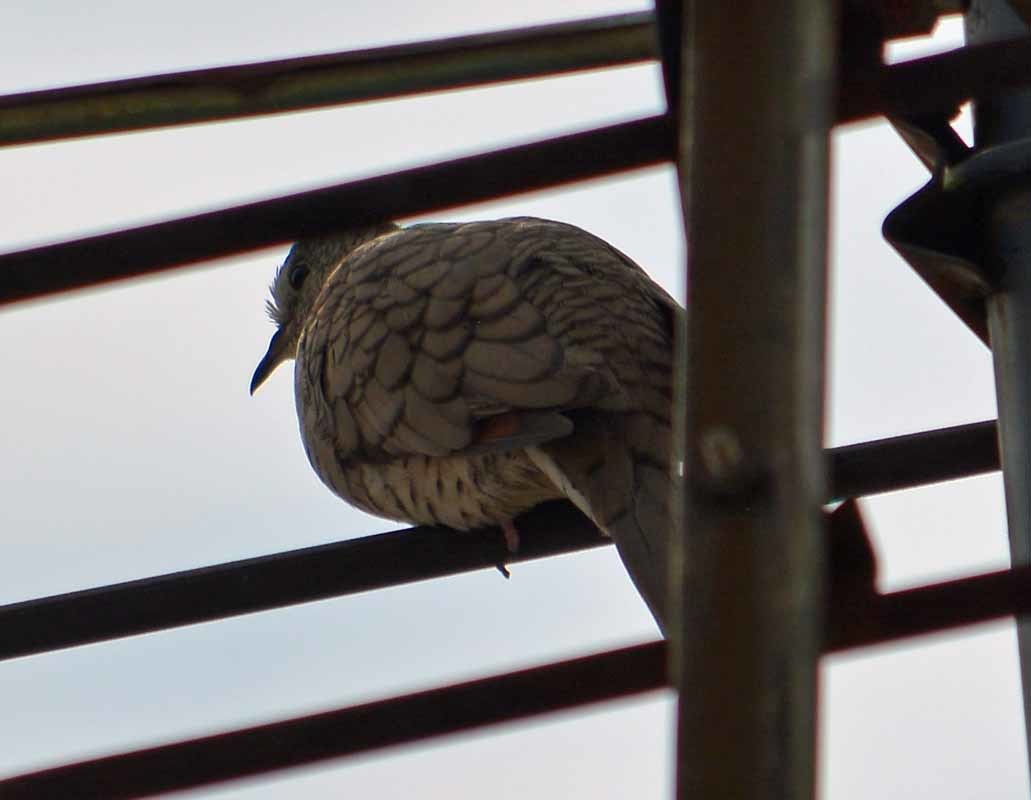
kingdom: Animalia
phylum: Chordata
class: Aves
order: Columbiformes
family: Columbidae
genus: Columbina
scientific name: Columbina inca
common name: Inca dove
